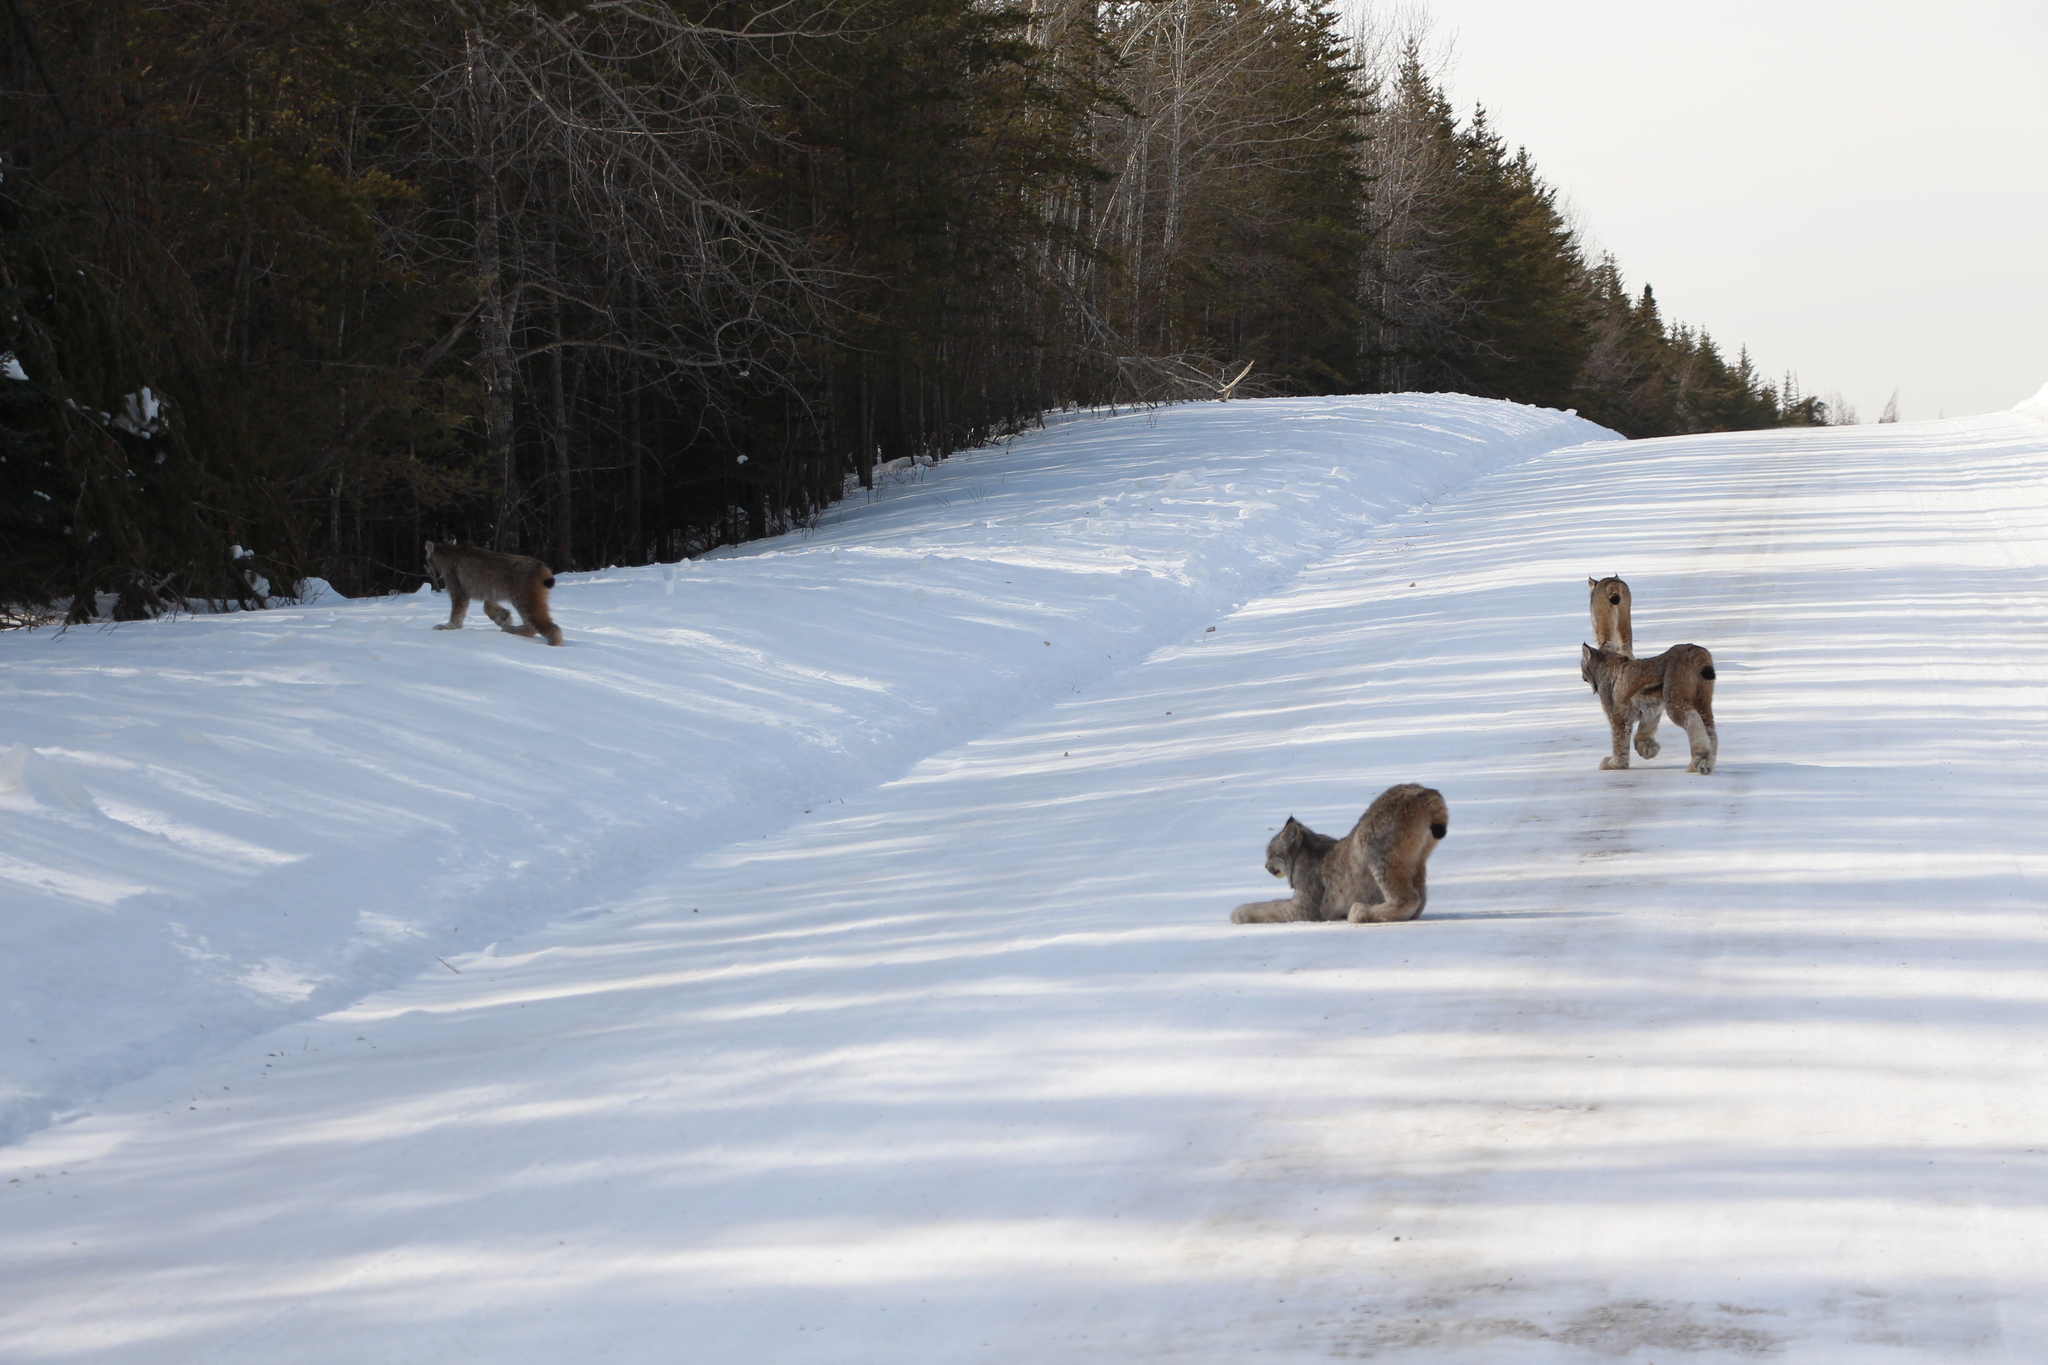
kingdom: Animalia
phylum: Chordata
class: Mammalia
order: Carnivora
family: Felidae
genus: Lynx
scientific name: Lynx canadensis
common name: Canadian lynx
